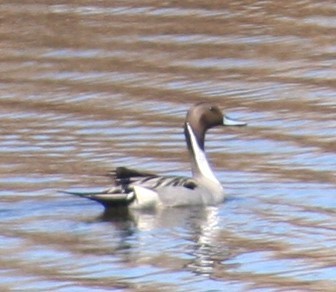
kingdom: Animalia
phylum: Chordata
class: Aves
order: Anseriformes
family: Anatidae
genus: Anas
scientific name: Anas acuta
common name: Northern pintail
